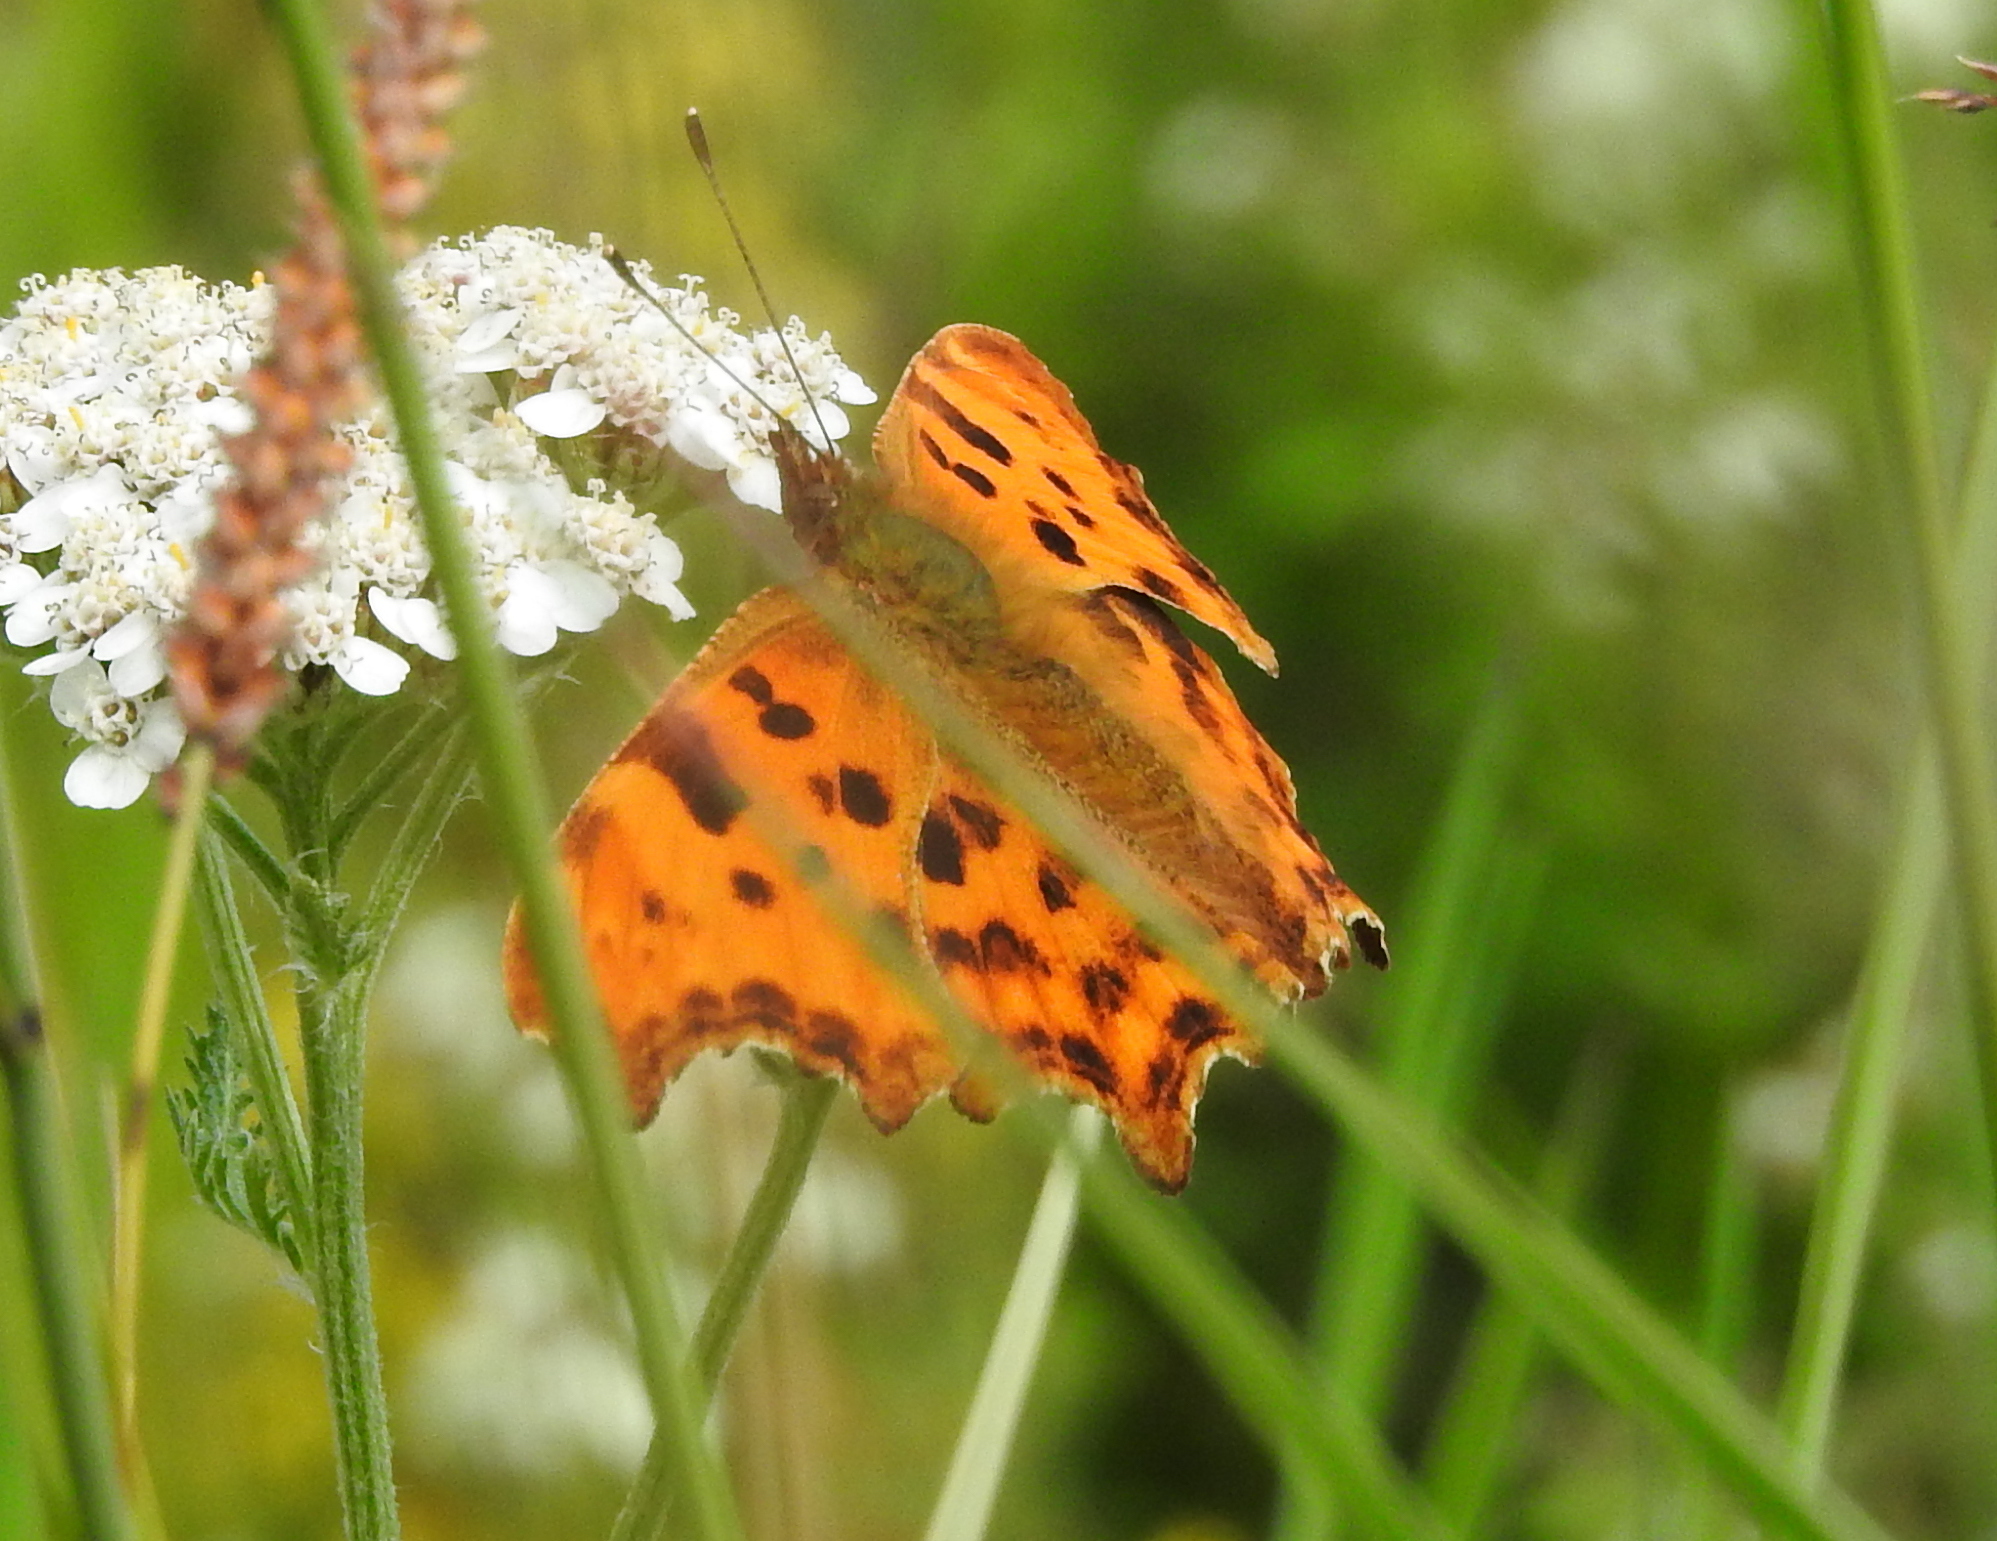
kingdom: Animalia
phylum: Arthropoda
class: Insecta
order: Lepidoptera
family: Nymphalidae
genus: Polygonia
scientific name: Polygonia c-album
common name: Comma
